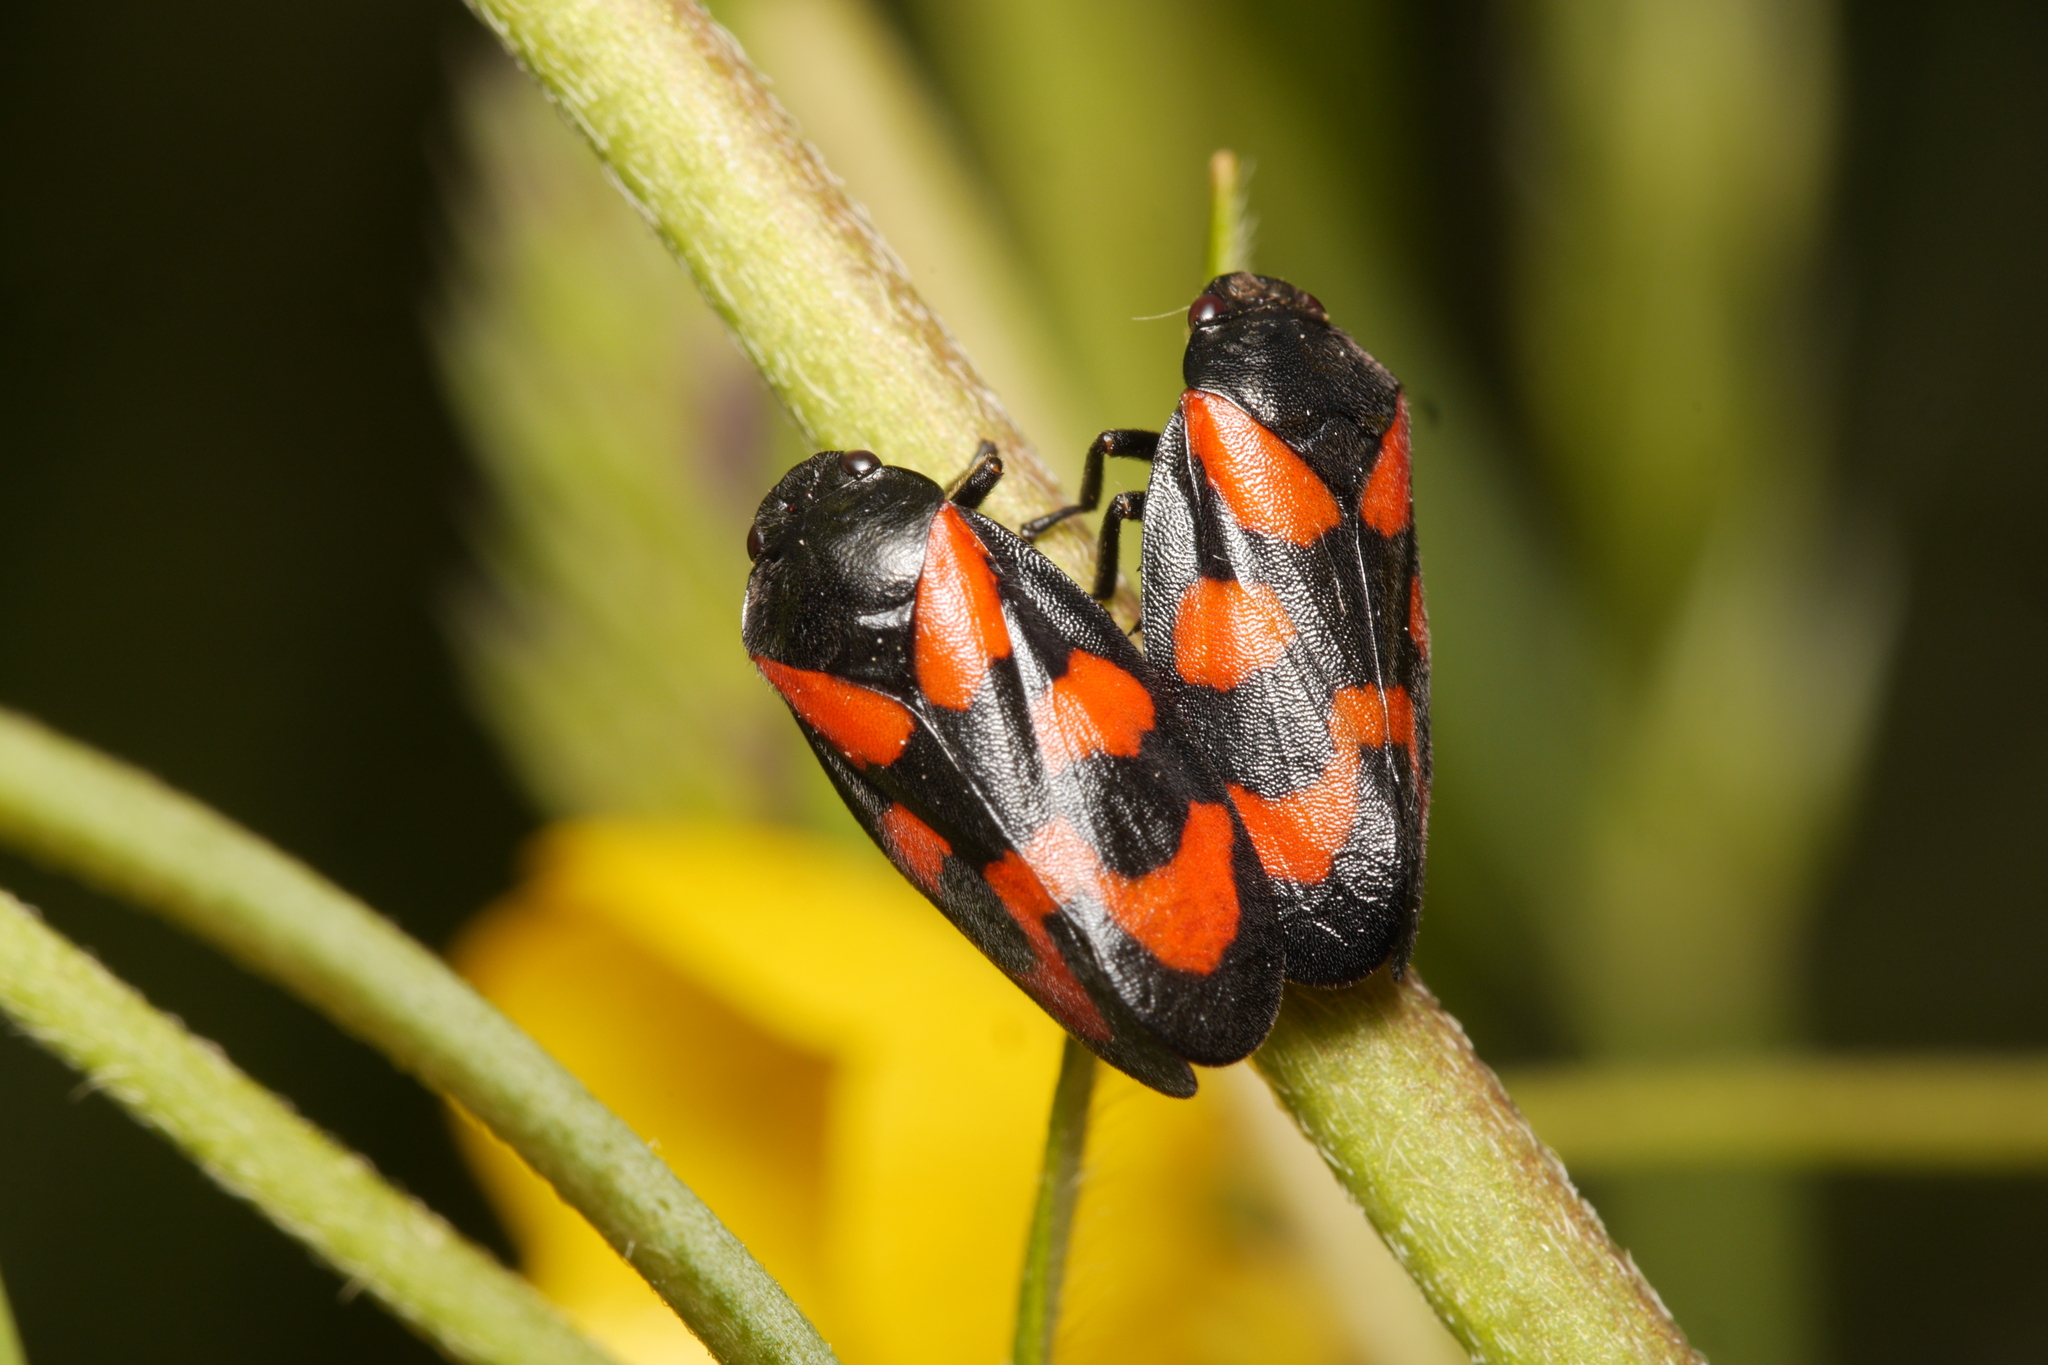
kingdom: Animalia
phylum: Arthropoda
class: Insecta
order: Hemiptera
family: Cercopidae
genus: Cercopis
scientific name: Cercopis vulnerata
